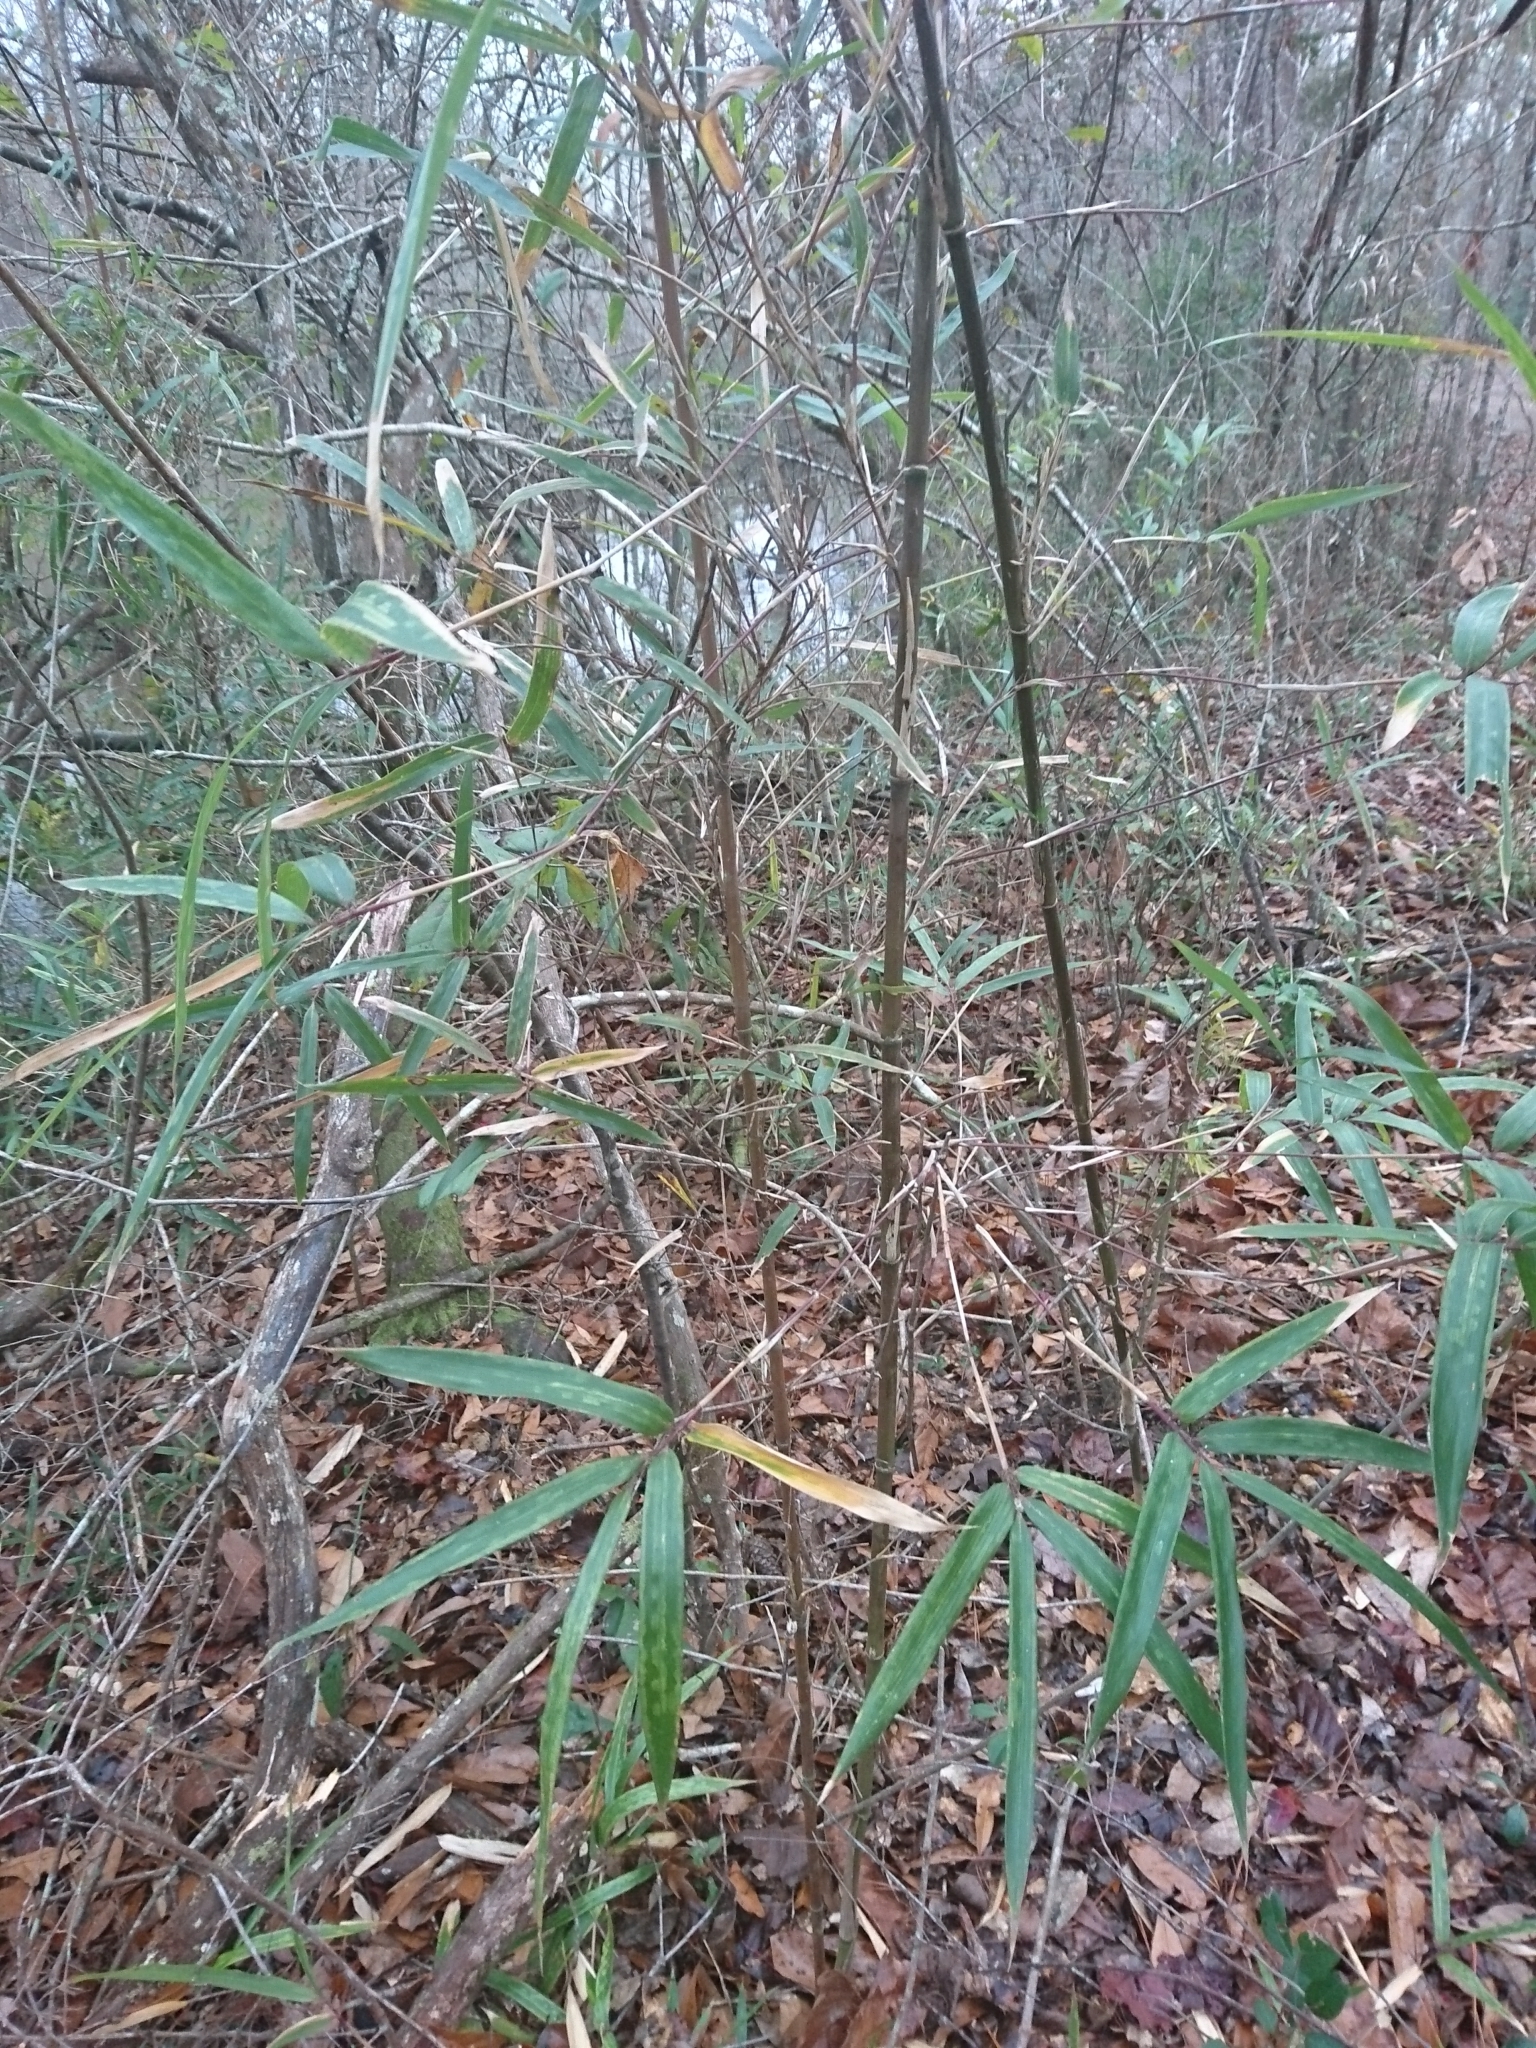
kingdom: Plantae
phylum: Tracheophyta
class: Liliopsida
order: Poales
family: Poaceae
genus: Arundinaria
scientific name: Arundinaria gigantea
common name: Giant cane
